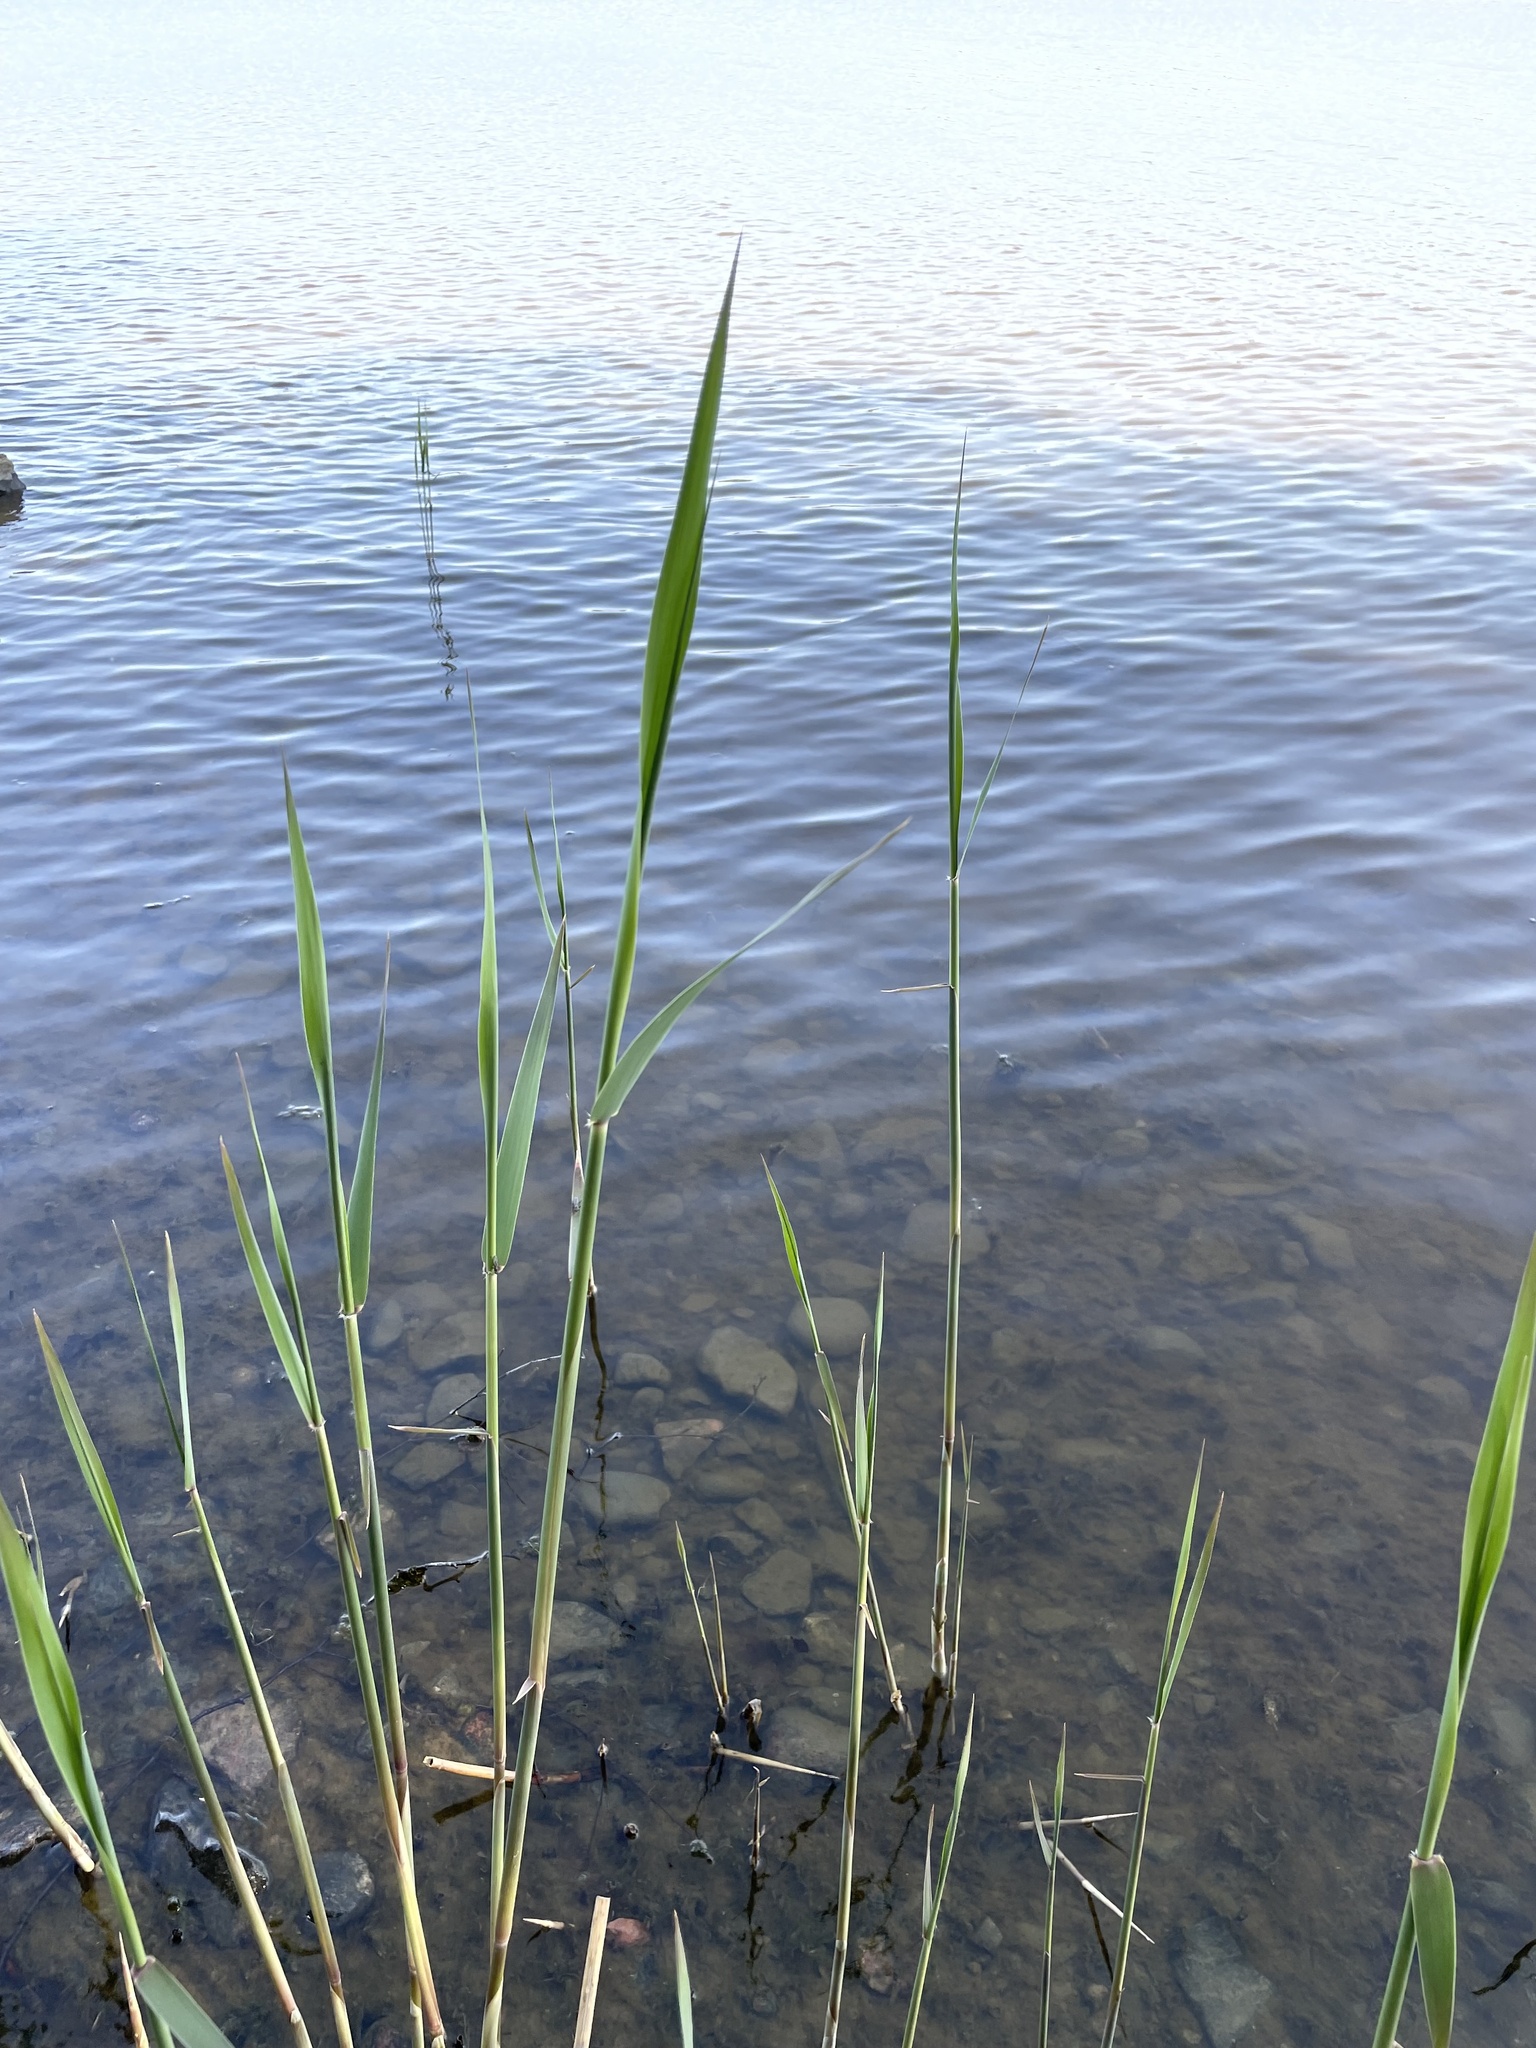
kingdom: Plantae
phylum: Tracheophyta
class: Liliopsida
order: Poales
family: Poaceae
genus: Phragmites
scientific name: Phragmites australis
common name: Common reed
